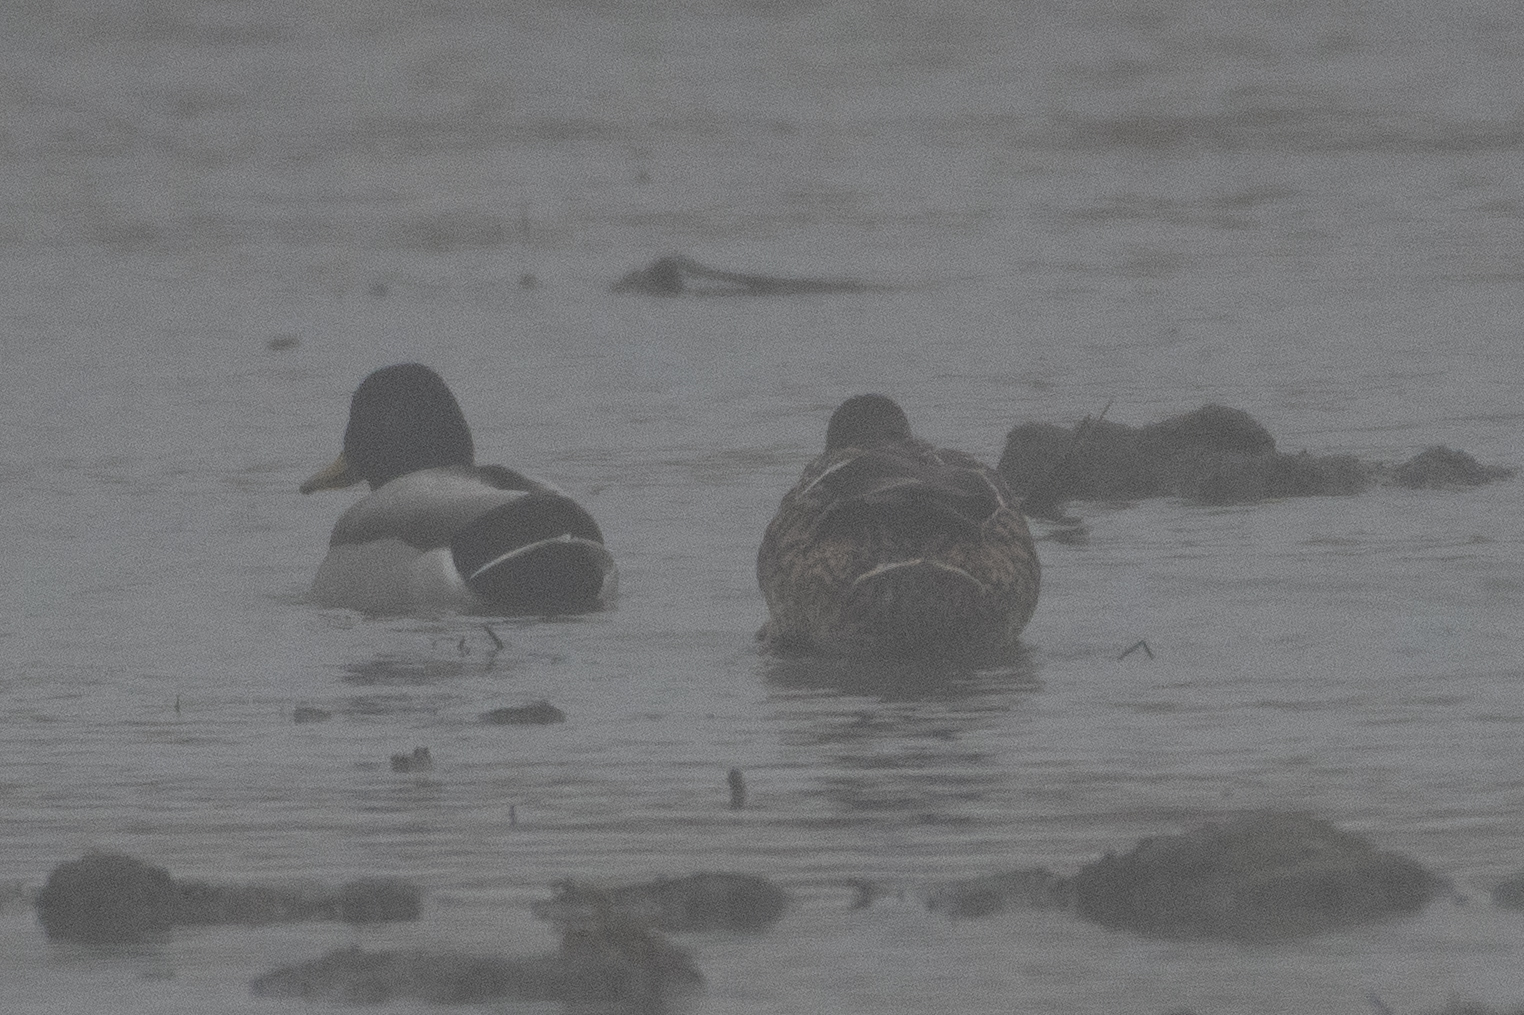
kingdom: Animalia
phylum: Chordata
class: Aves
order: Anseriformes
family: Anatidae
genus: Anas
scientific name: Anas platyrhynchos
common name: Mallard
